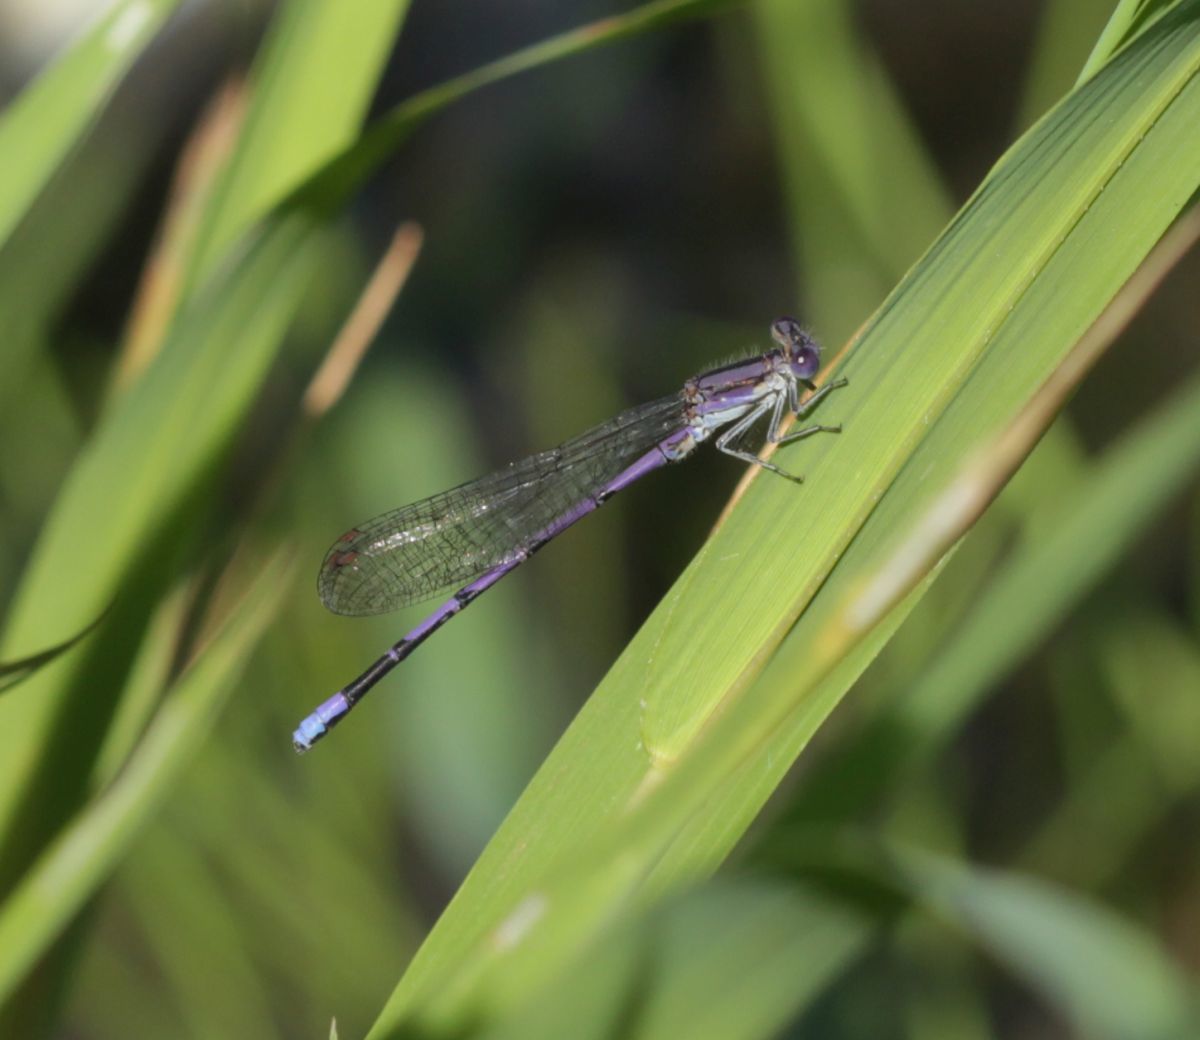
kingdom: Animalia
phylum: Arthropoda
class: Insecta
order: Odonata
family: Coenagrionidae
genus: Argia
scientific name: Argia fumipennis
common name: Variable dancer
